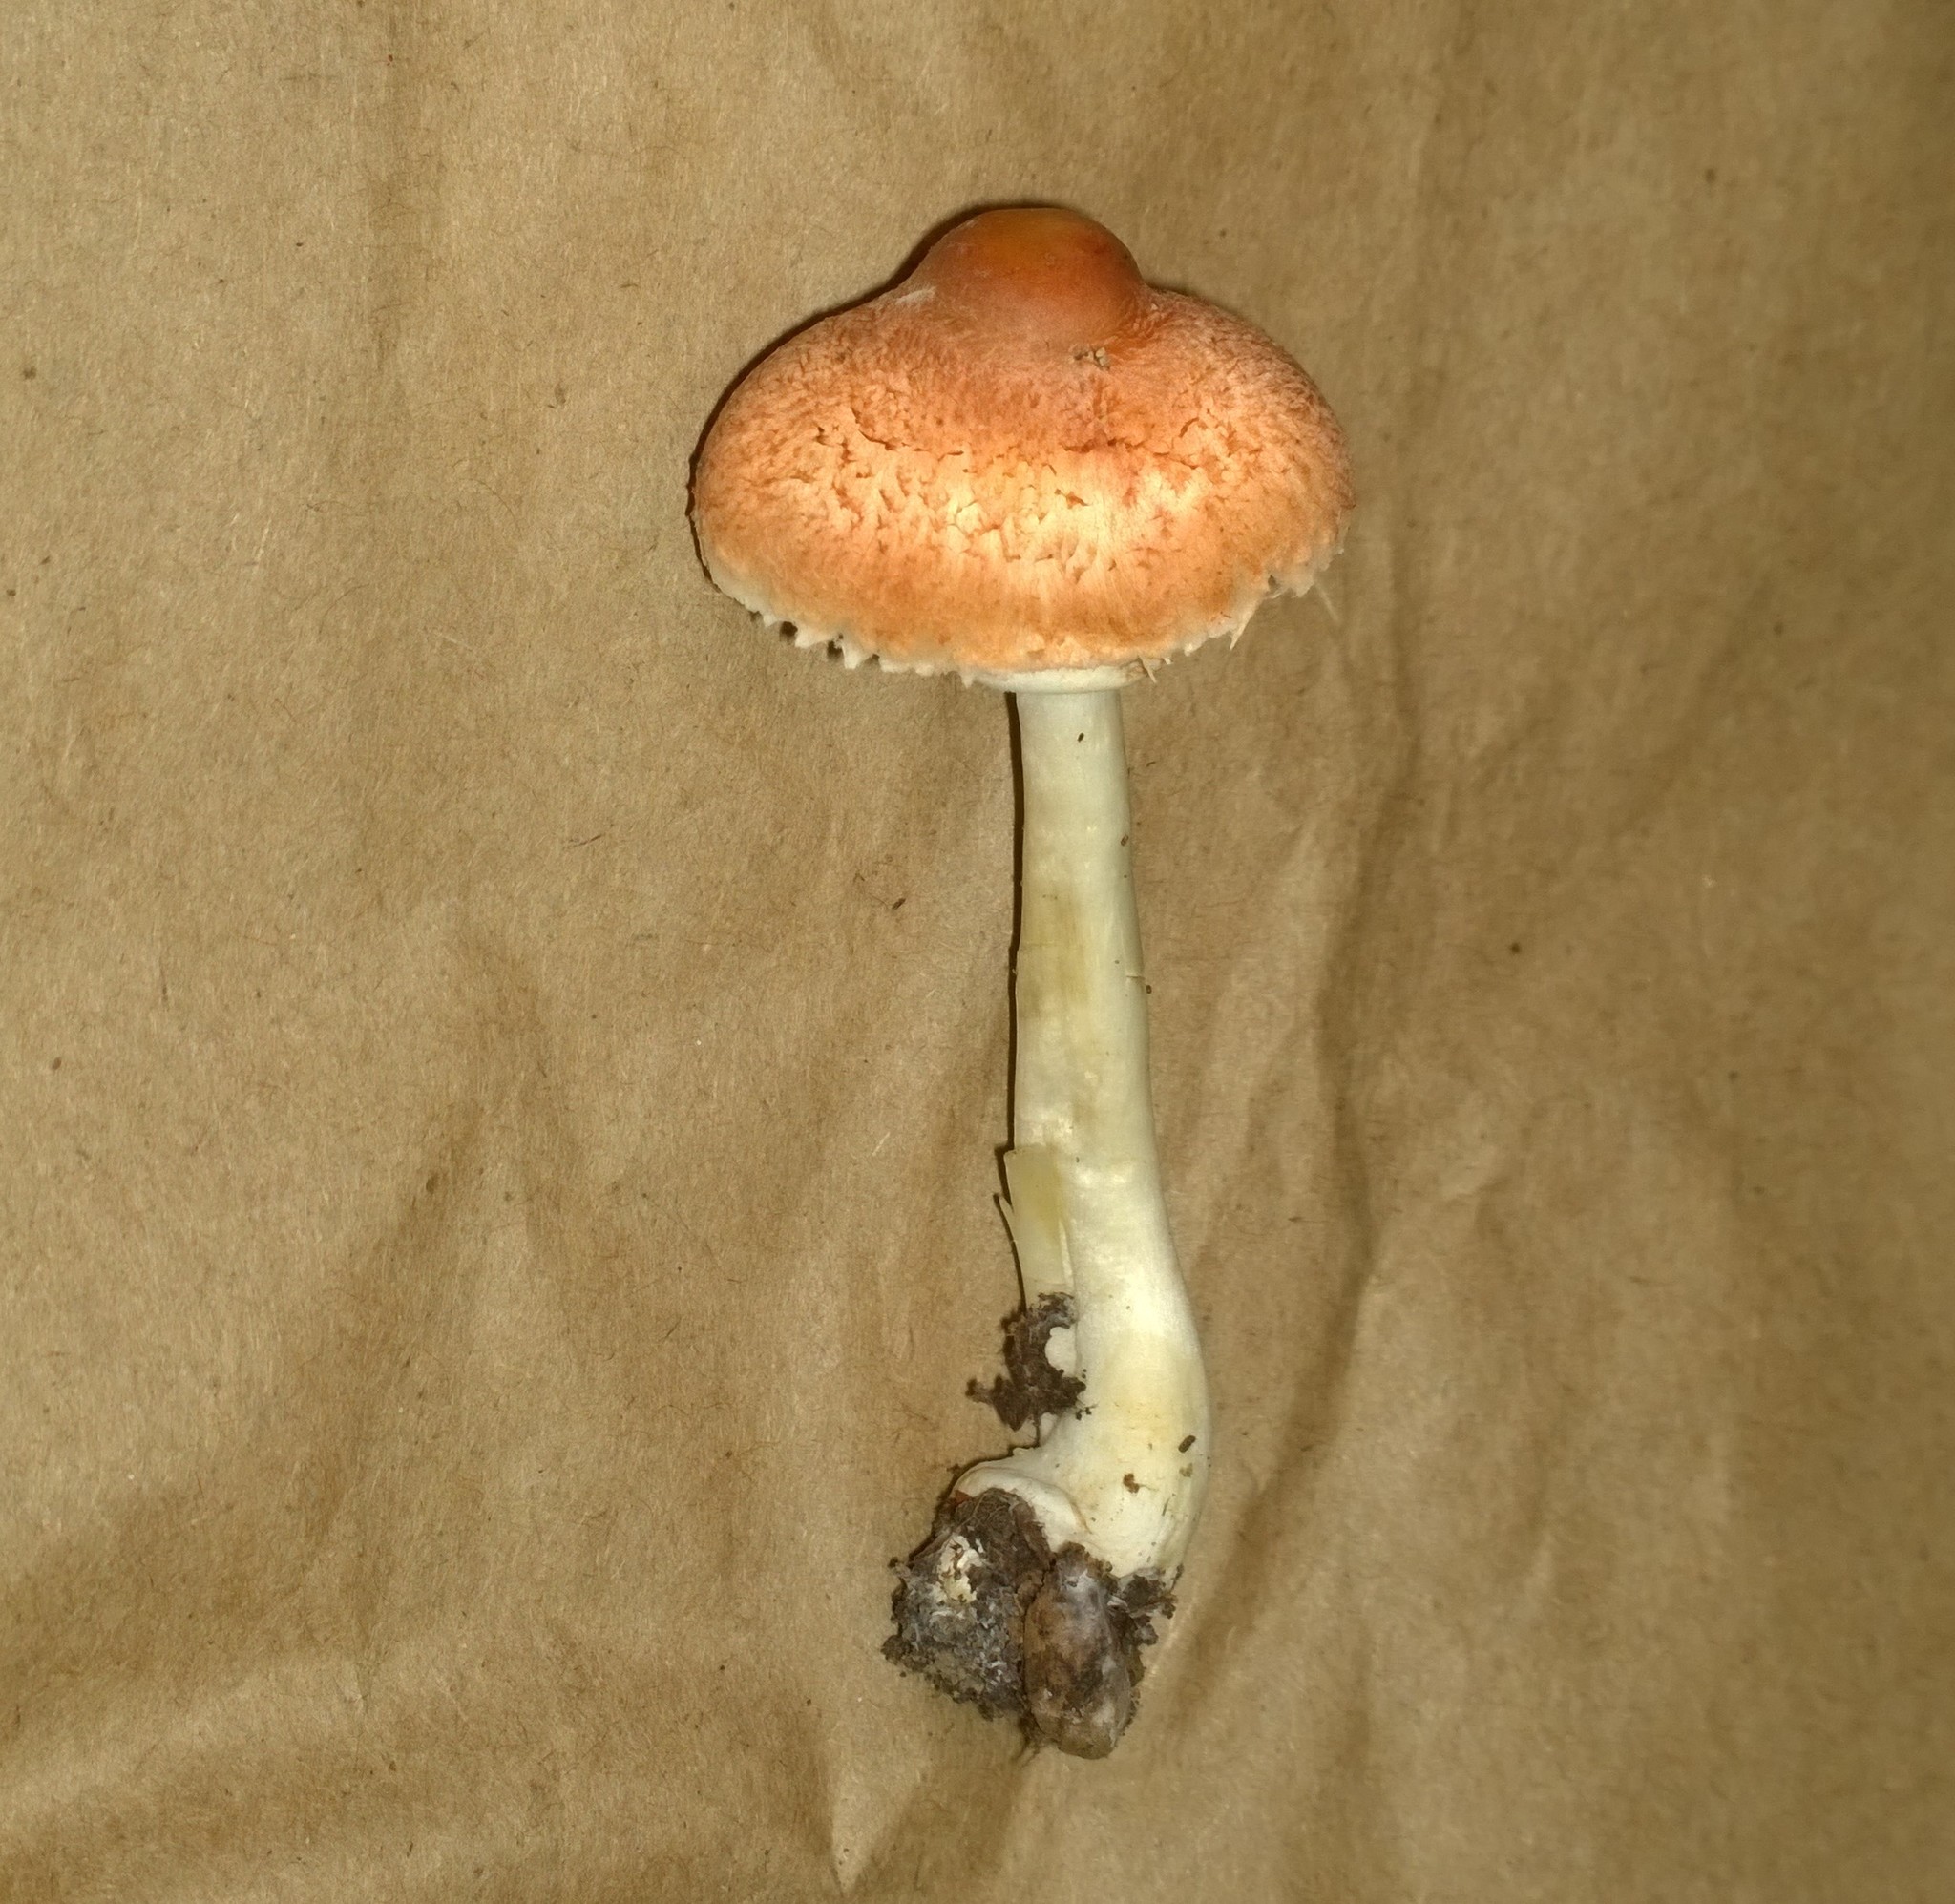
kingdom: Fungi
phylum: Basidiomycota
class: Agaricomycetes
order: Agaricales
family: Agaricaceae
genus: Leucoagaricus
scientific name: Leucoagaricus rubrotinctus
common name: Ruby dapperling
